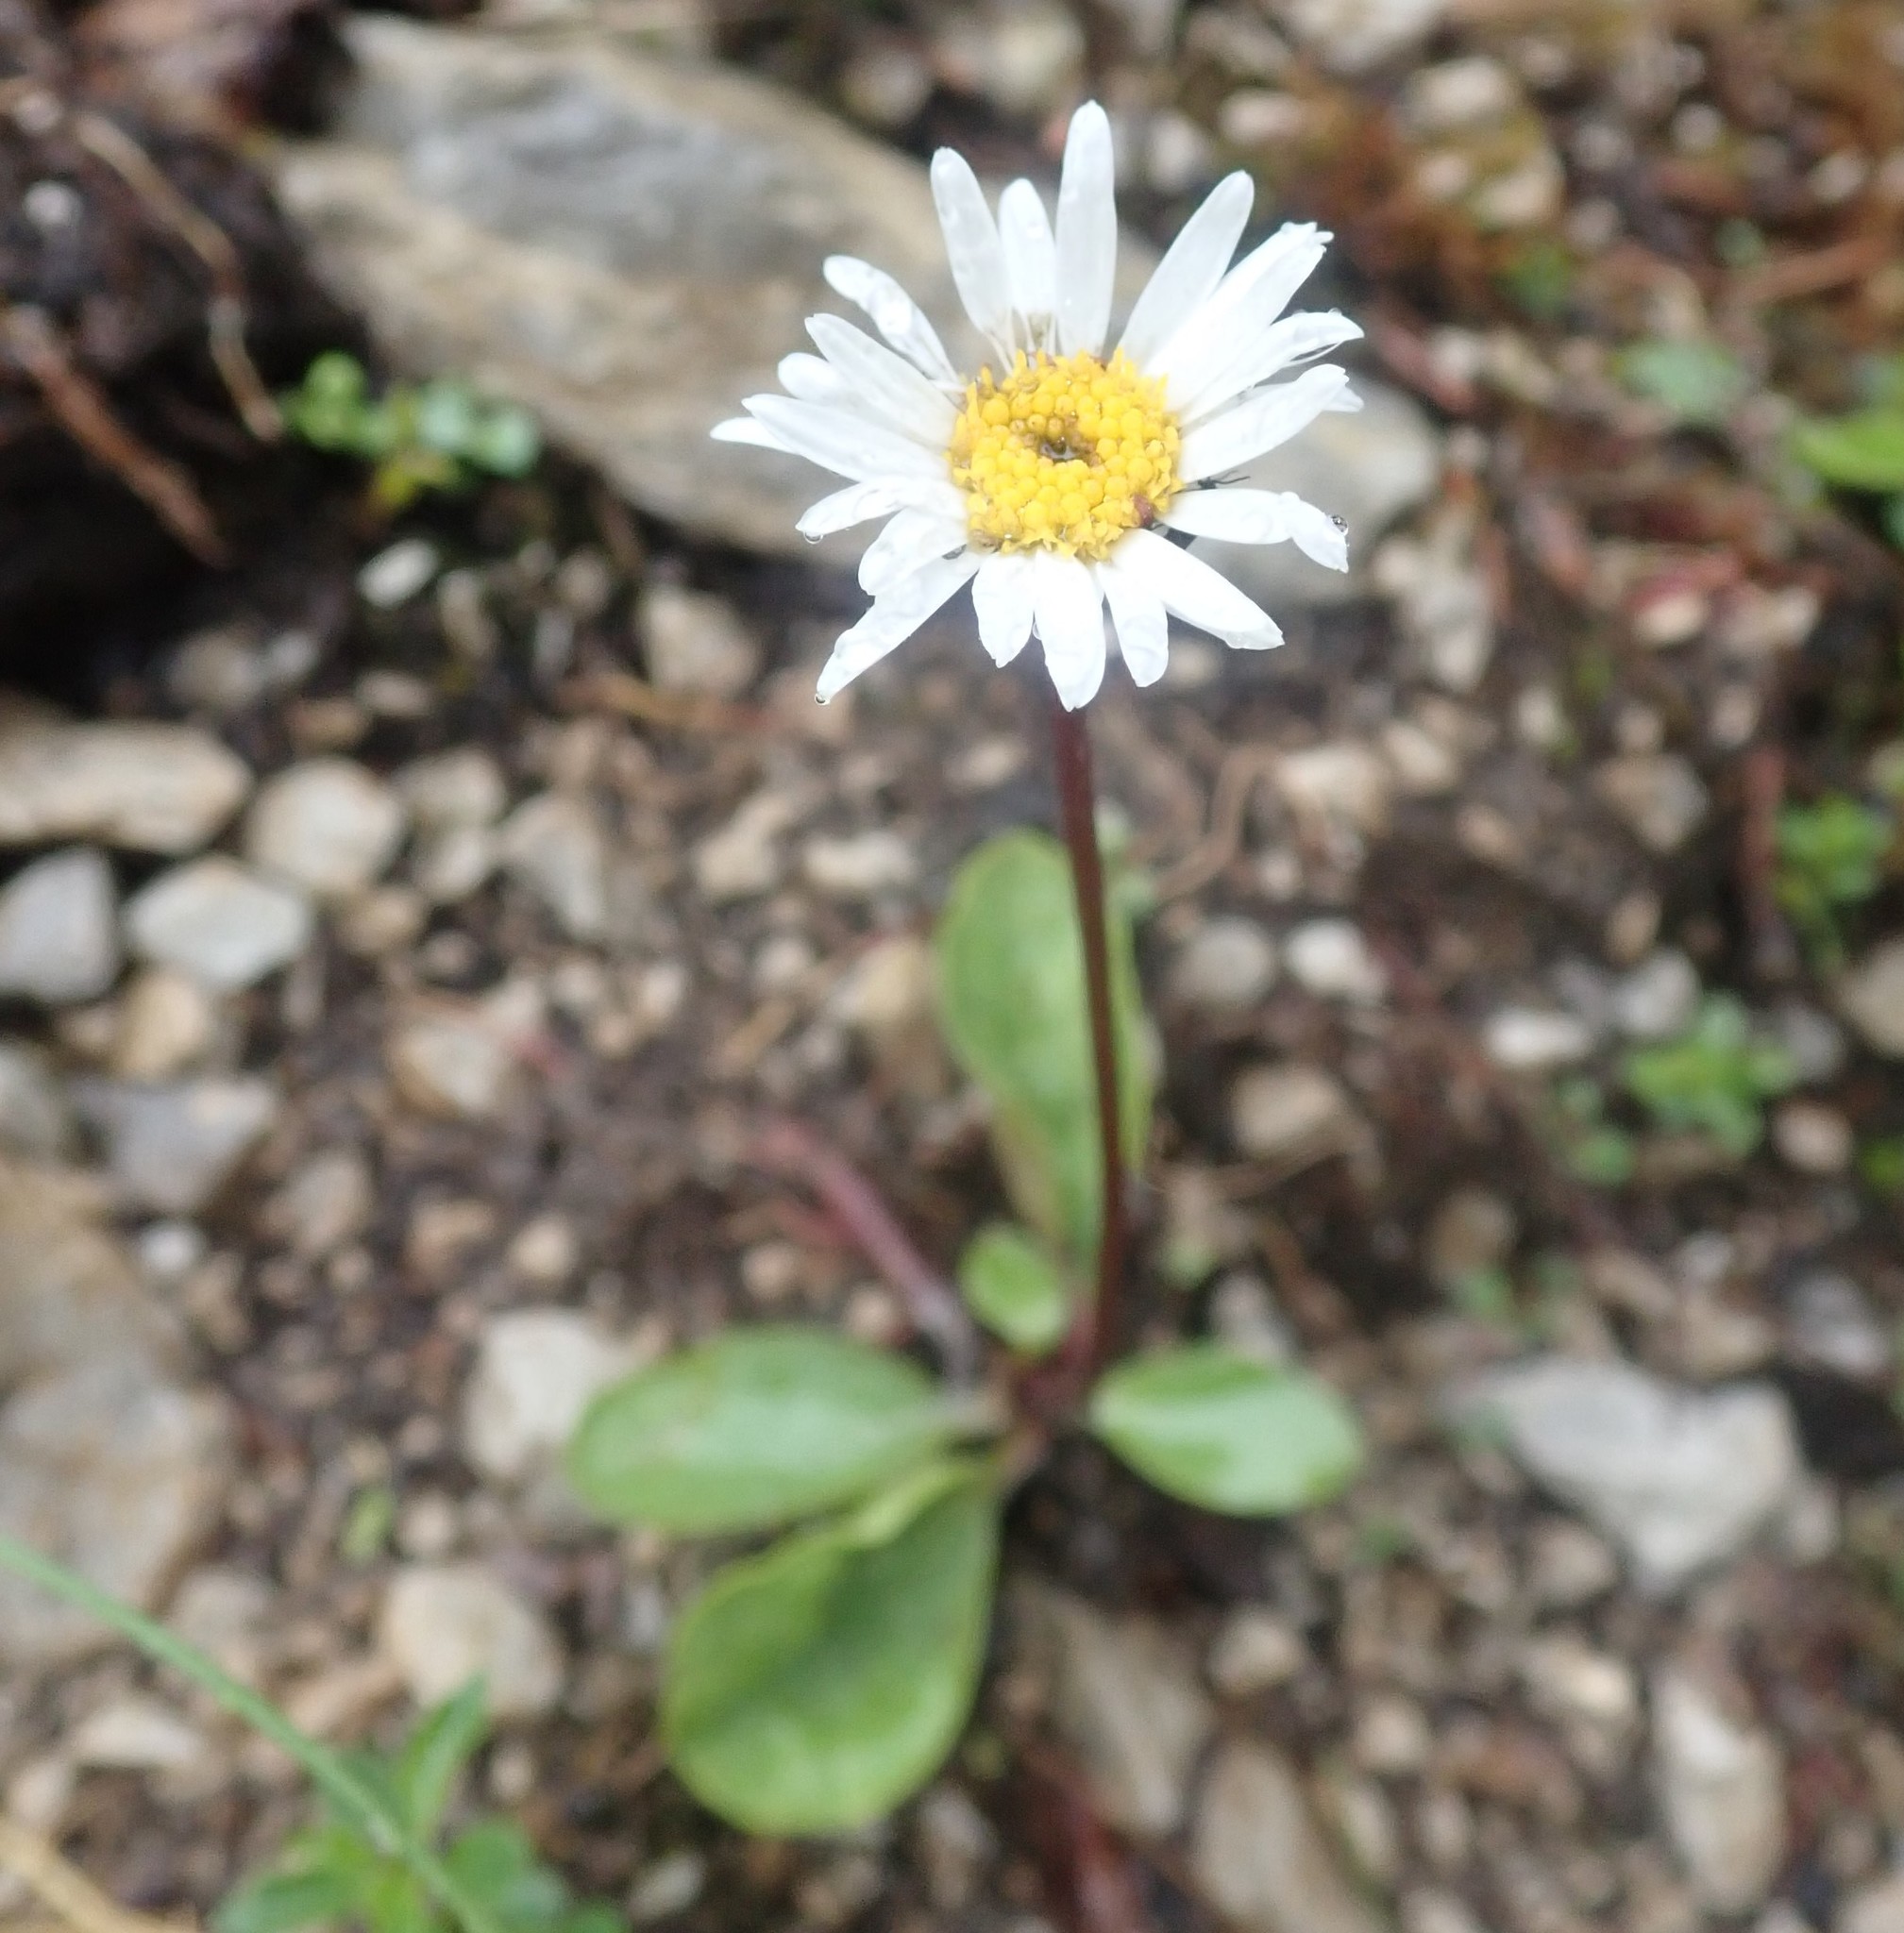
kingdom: Plantae
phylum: Tracheophyta
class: Magnoliopsida
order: Asterales
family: Asteraceae
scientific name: Asteraceae
